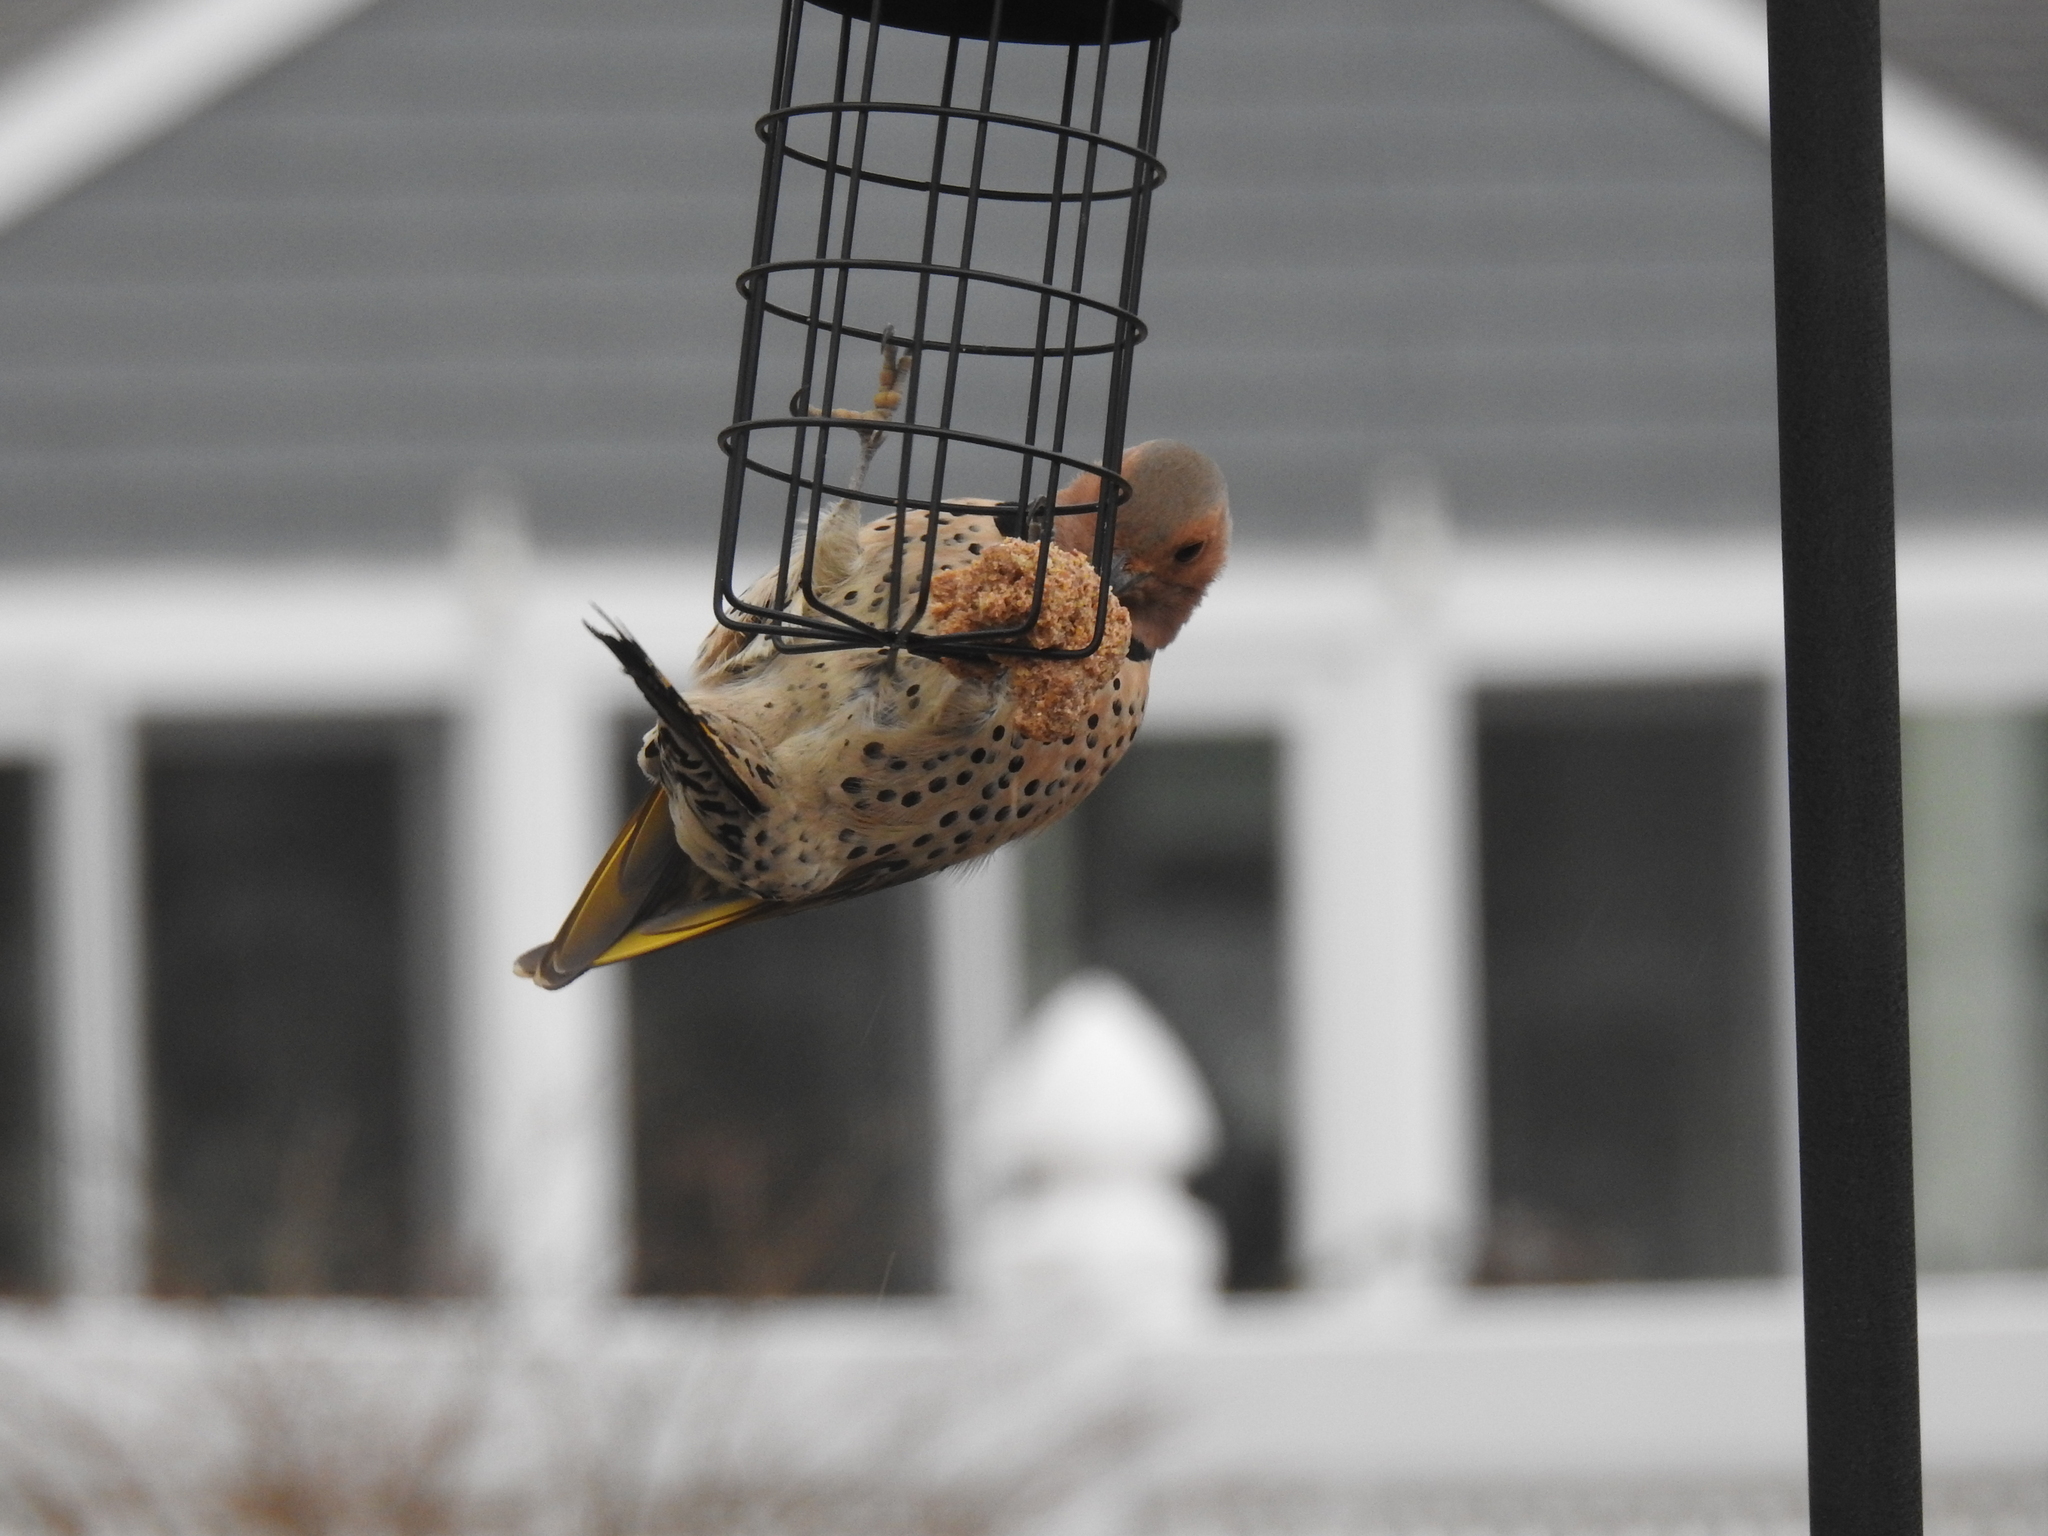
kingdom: Animalia
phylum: Chordata
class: Aves
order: Piciformes
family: Picidae
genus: Colaptes
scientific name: Colaptes auratus
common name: Northern flicker
